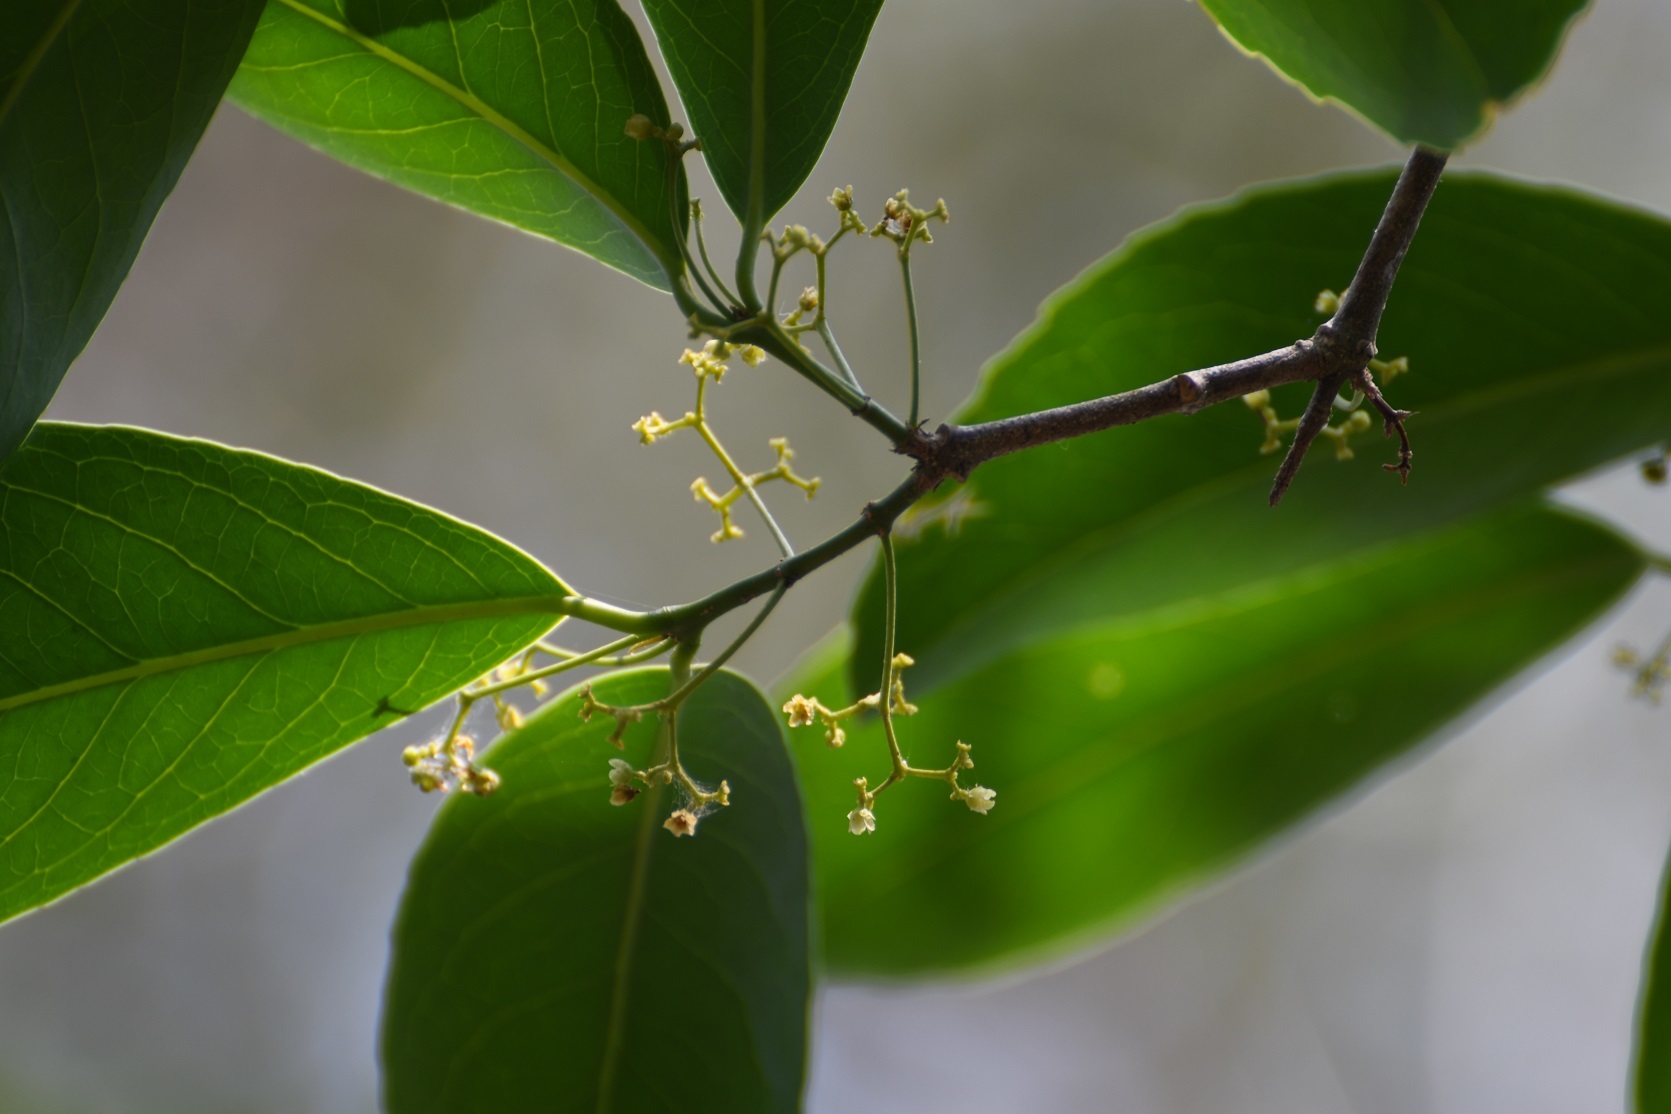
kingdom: Plantae
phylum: Tracheophyta
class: Magnoliopsida
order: Celastrales
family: Celastraceae
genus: Hippocratea
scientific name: Hippocratea volubilis
